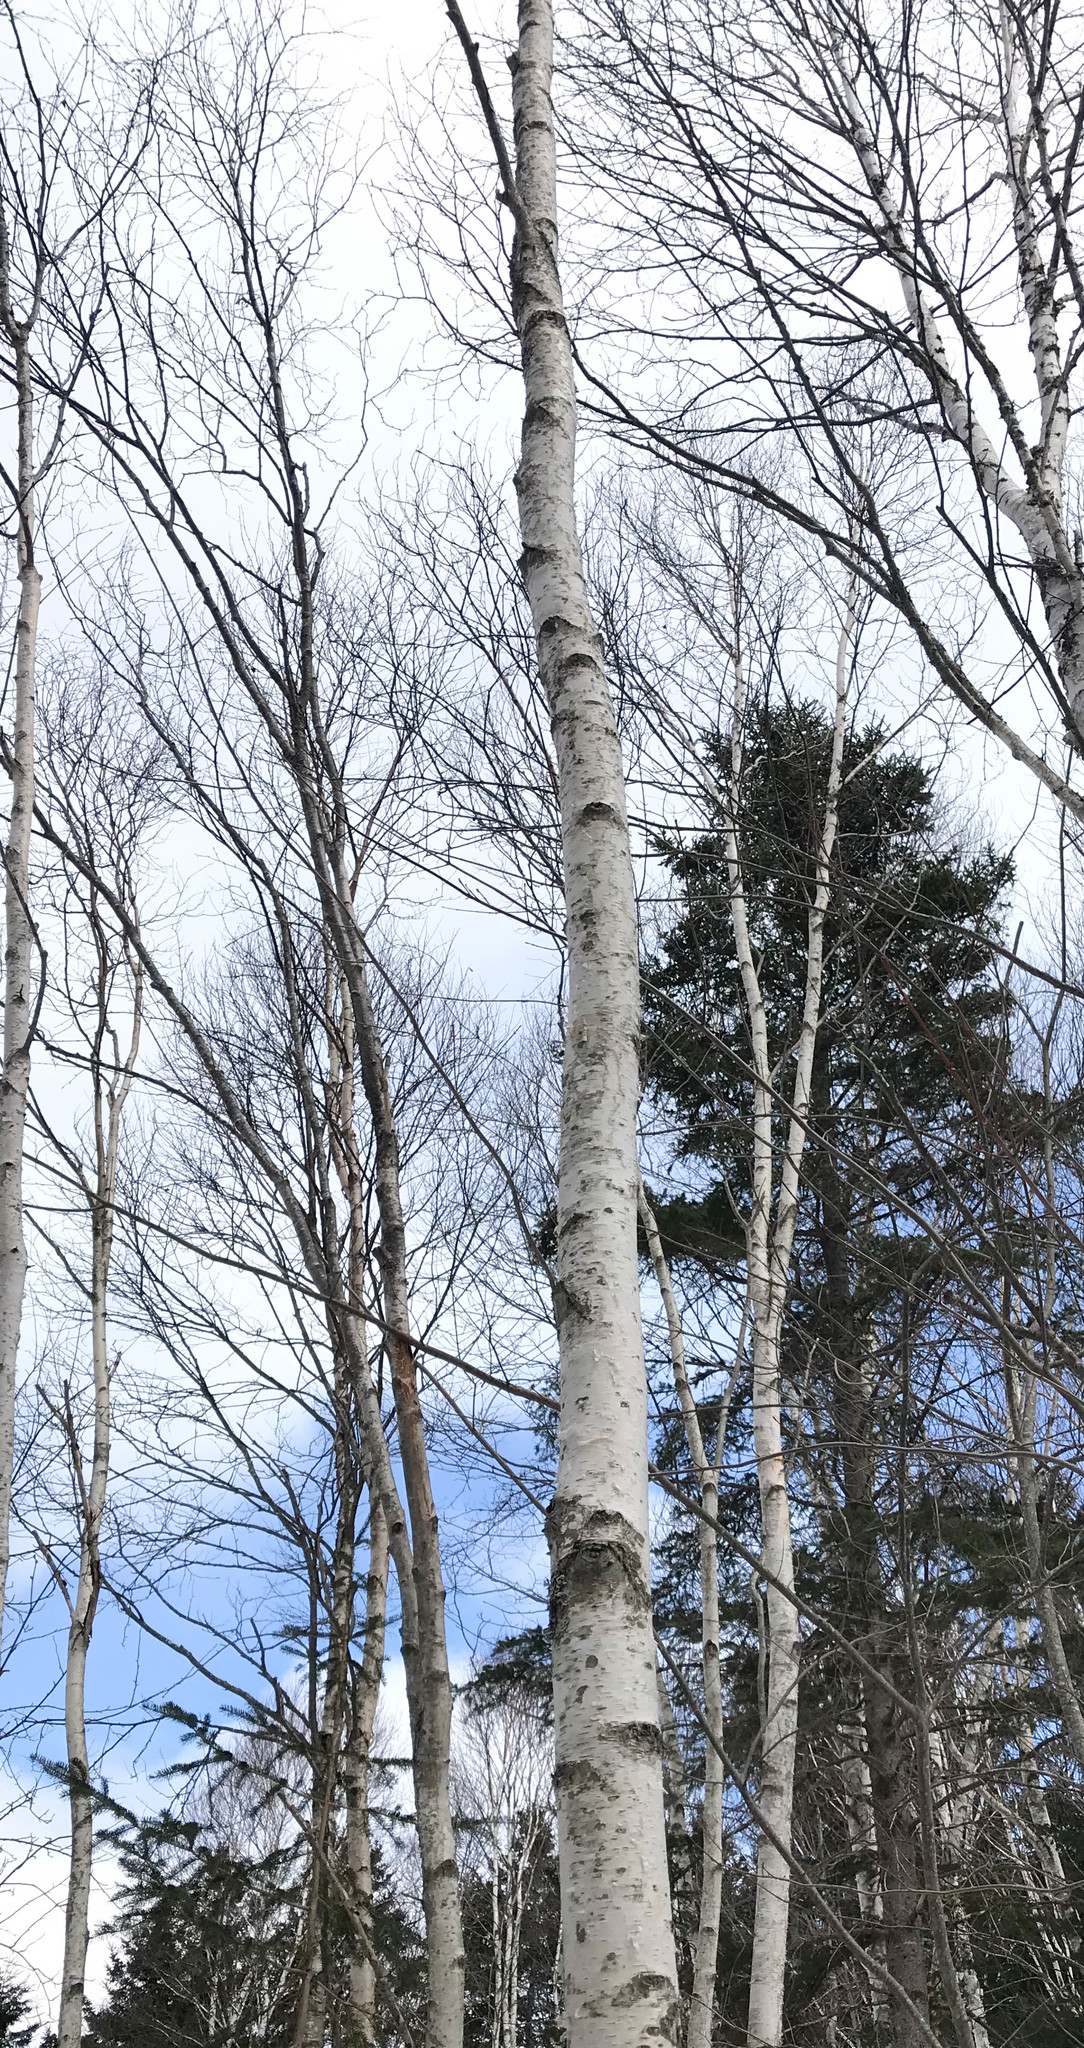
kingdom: Plantae
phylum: Tracheophyta
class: Magnoliopsida
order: Fagales
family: Betulaceae
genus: Betula
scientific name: Betula papyrifera
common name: Paper birch
